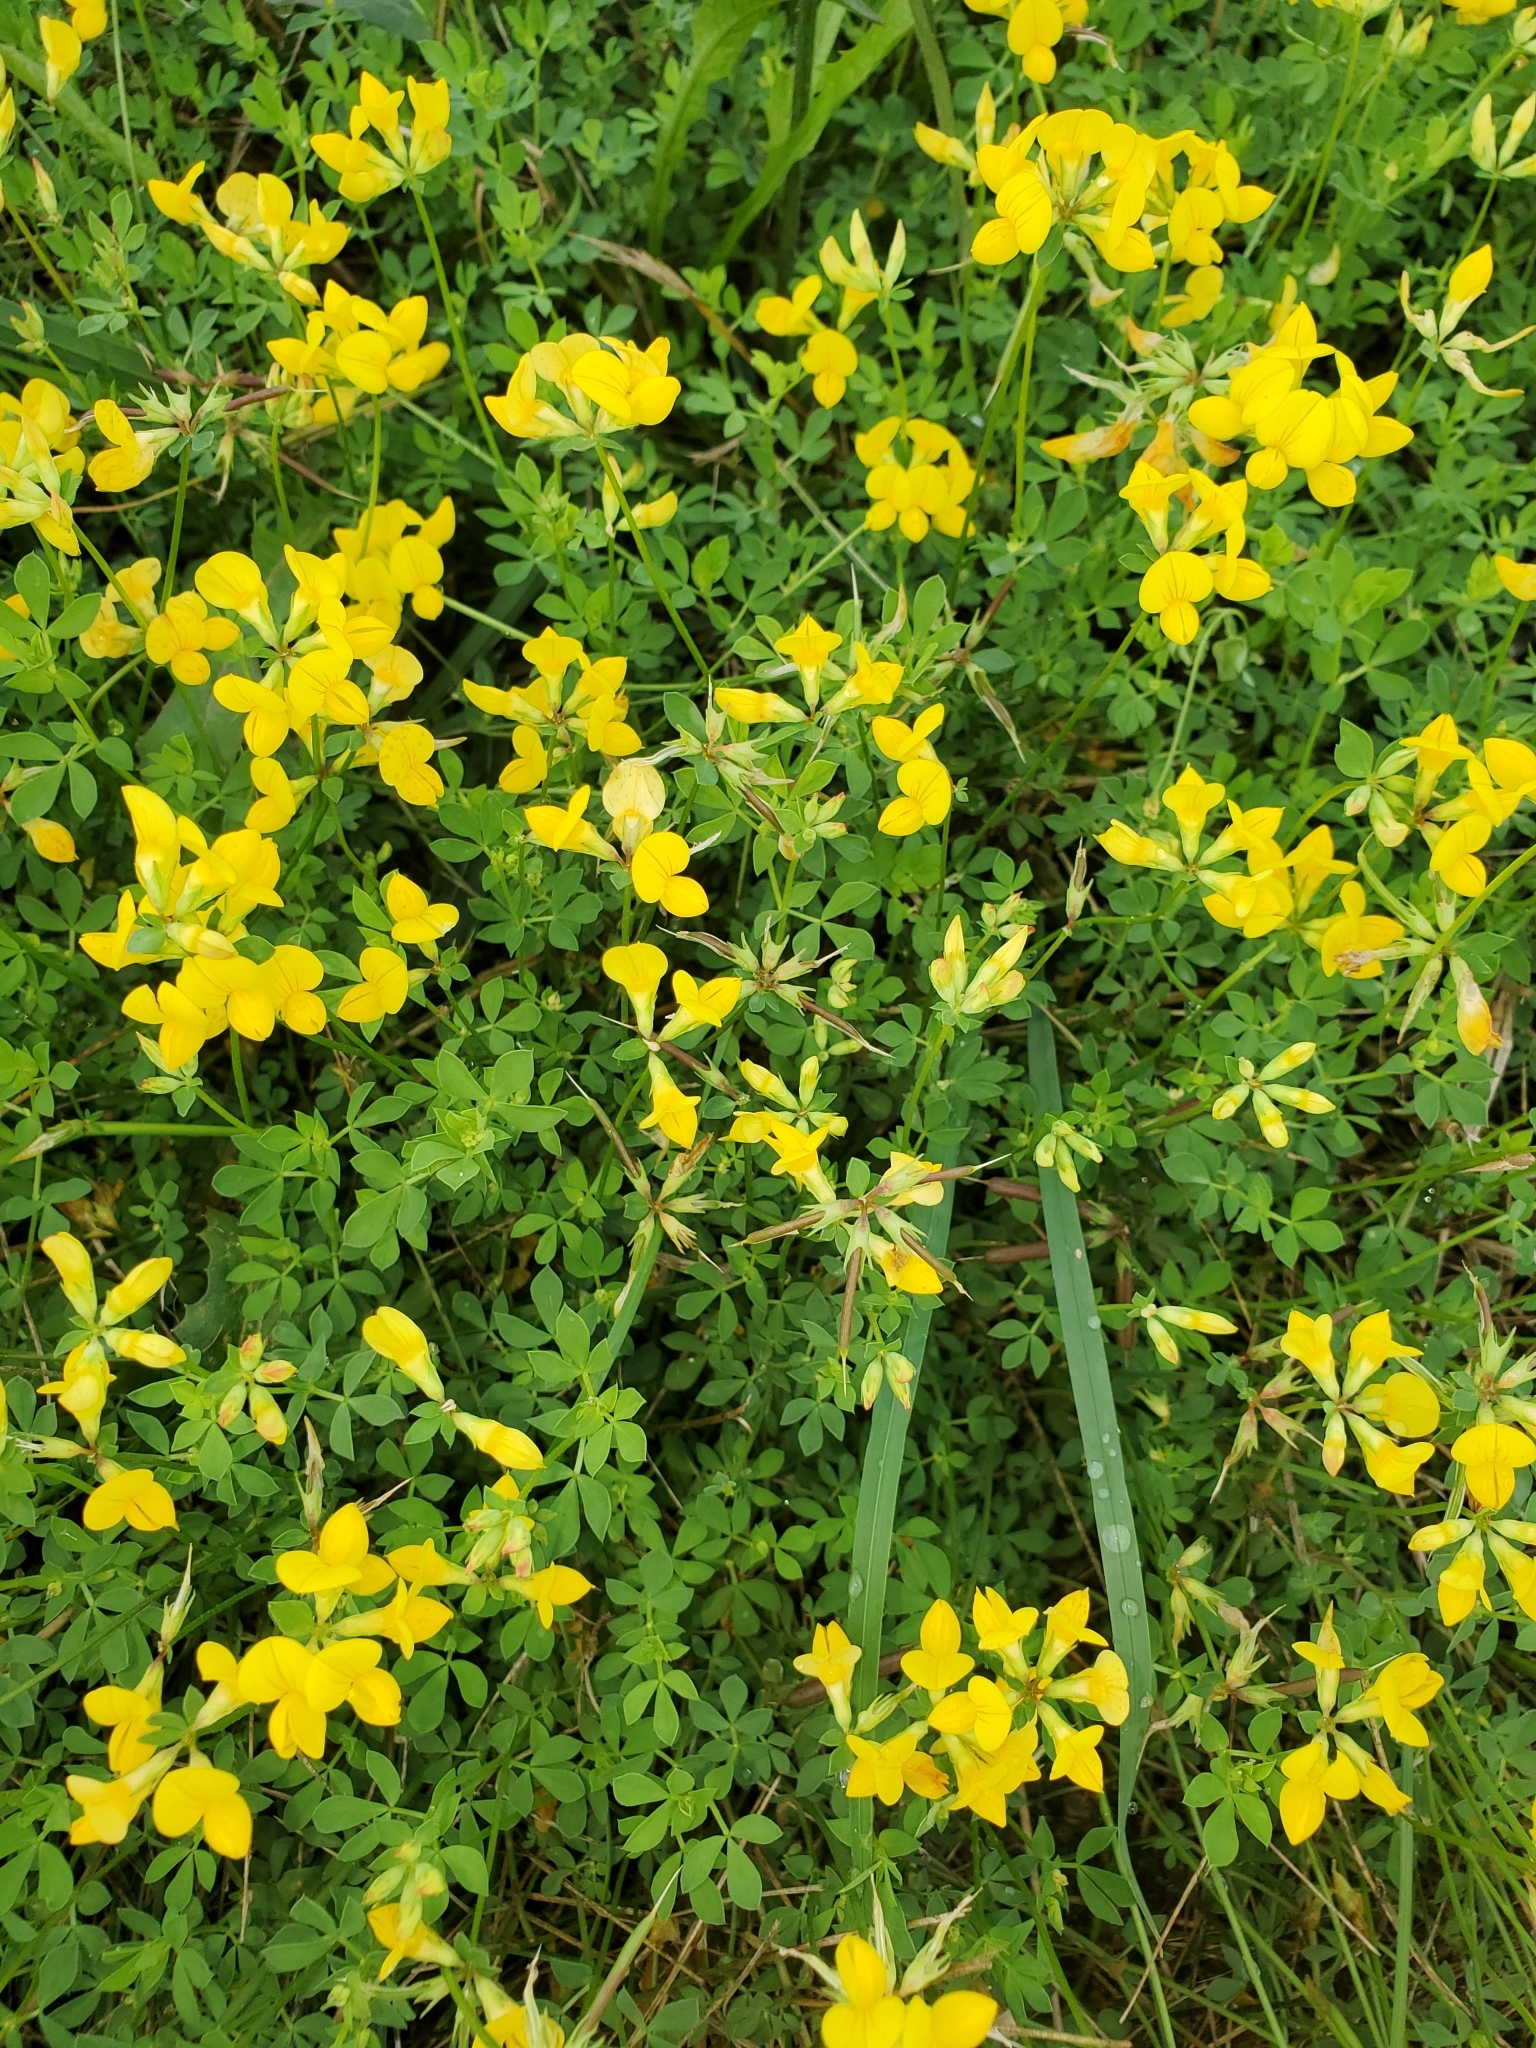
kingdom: Plantae
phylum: Tracheophyta
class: Magnoliopsida
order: Fabales
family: Fabaceae
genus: Lotus
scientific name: Lotus corniculatus
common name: Common bird's-foot-trefoil
